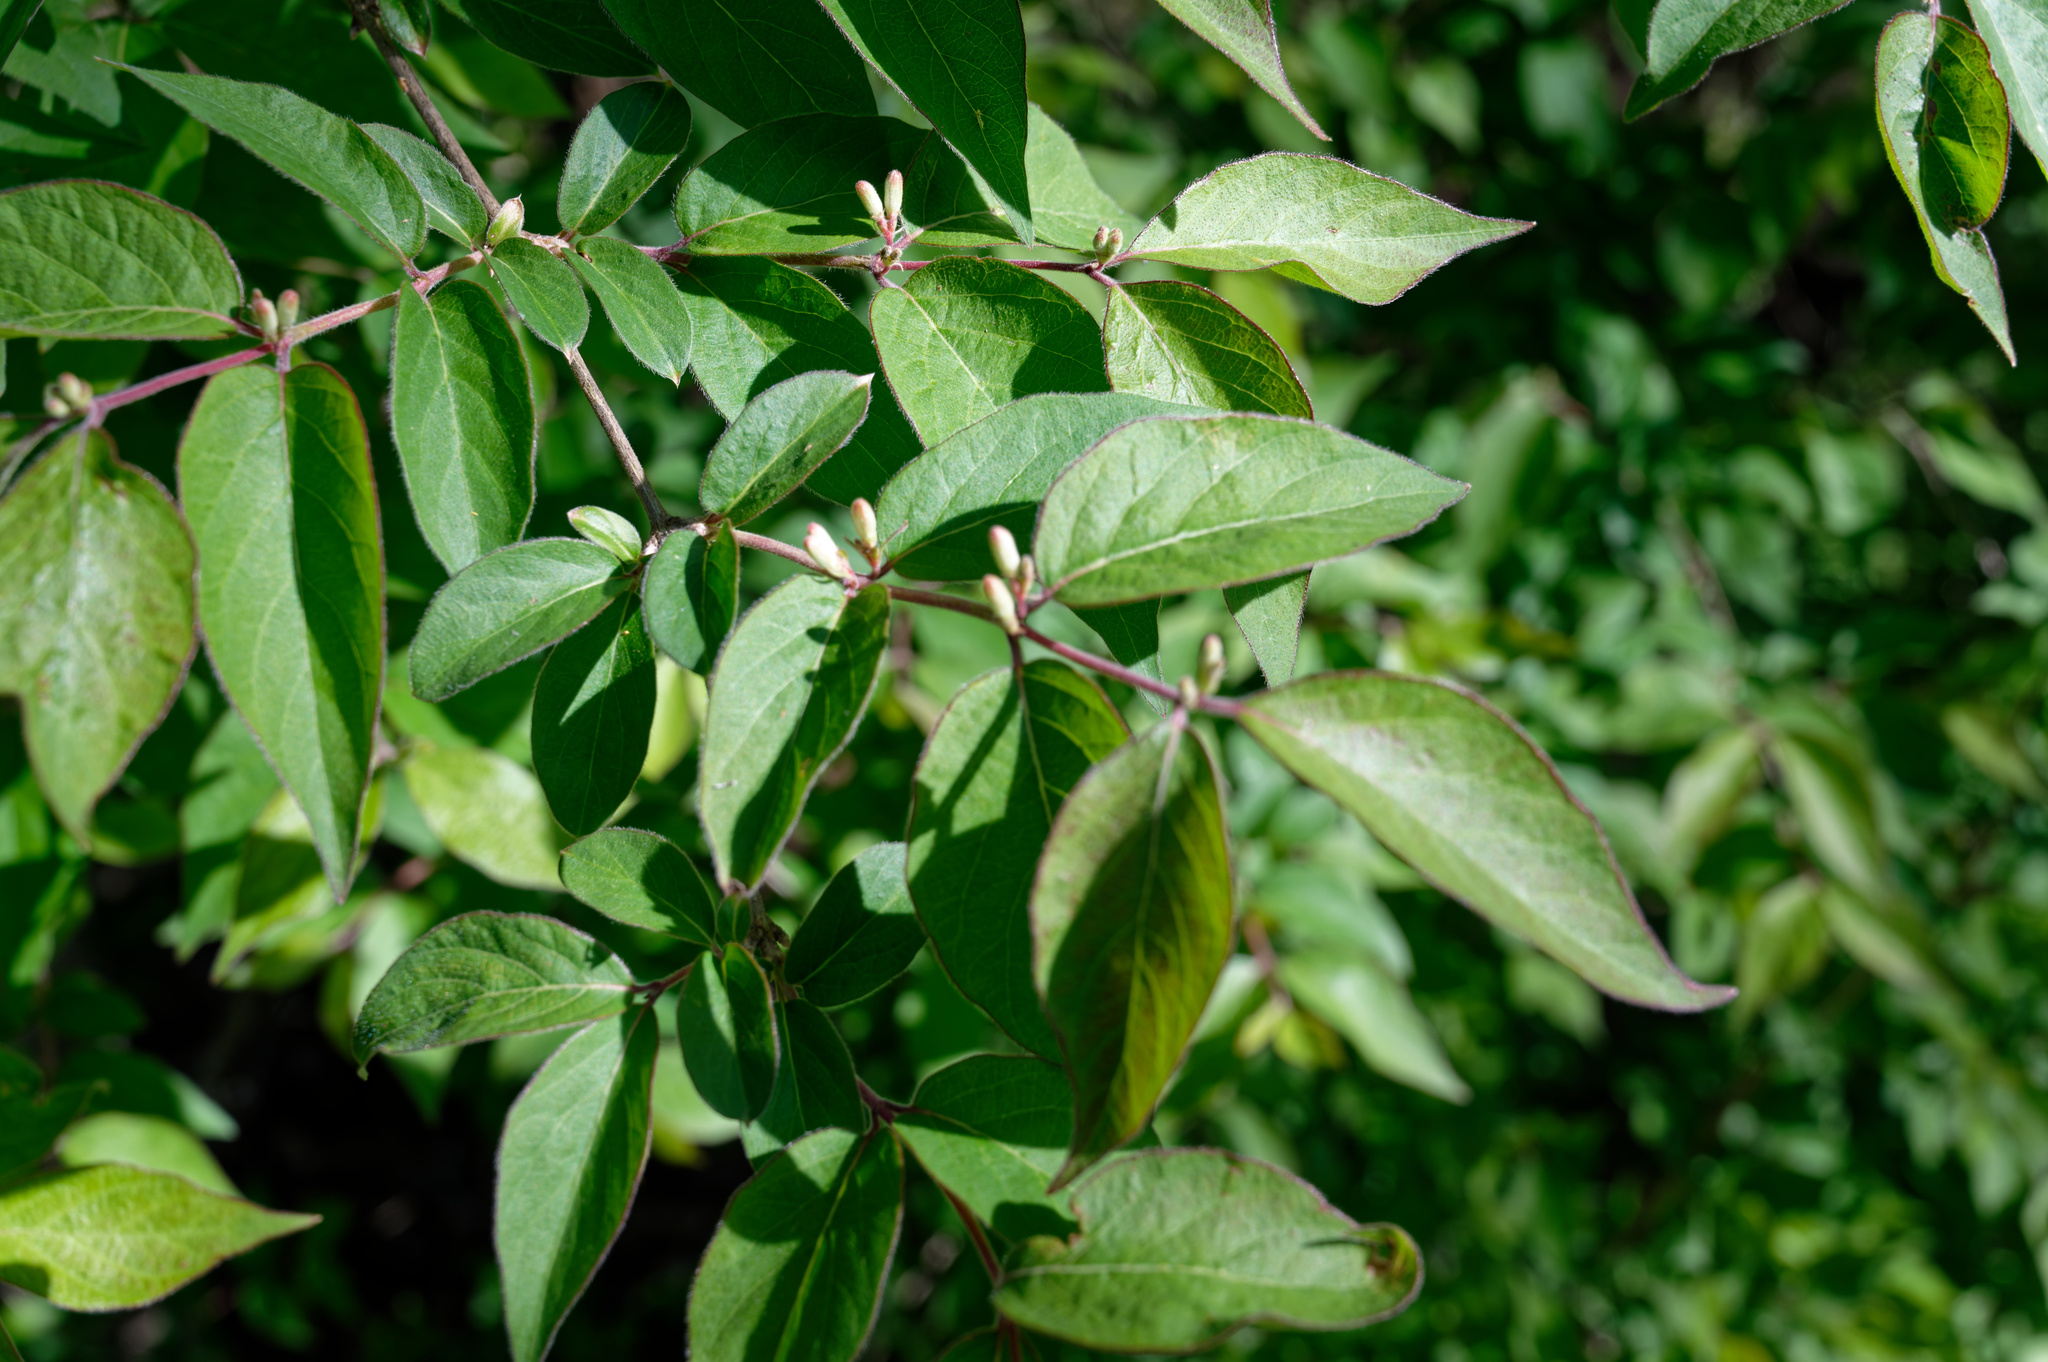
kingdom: Plantae
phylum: Tracheophyta
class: Magnoliopsida
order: Dipsacales
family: Caprifoliaceae
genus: Lonicera
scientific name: Lonicera maackii
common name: Amur honeysuckle
